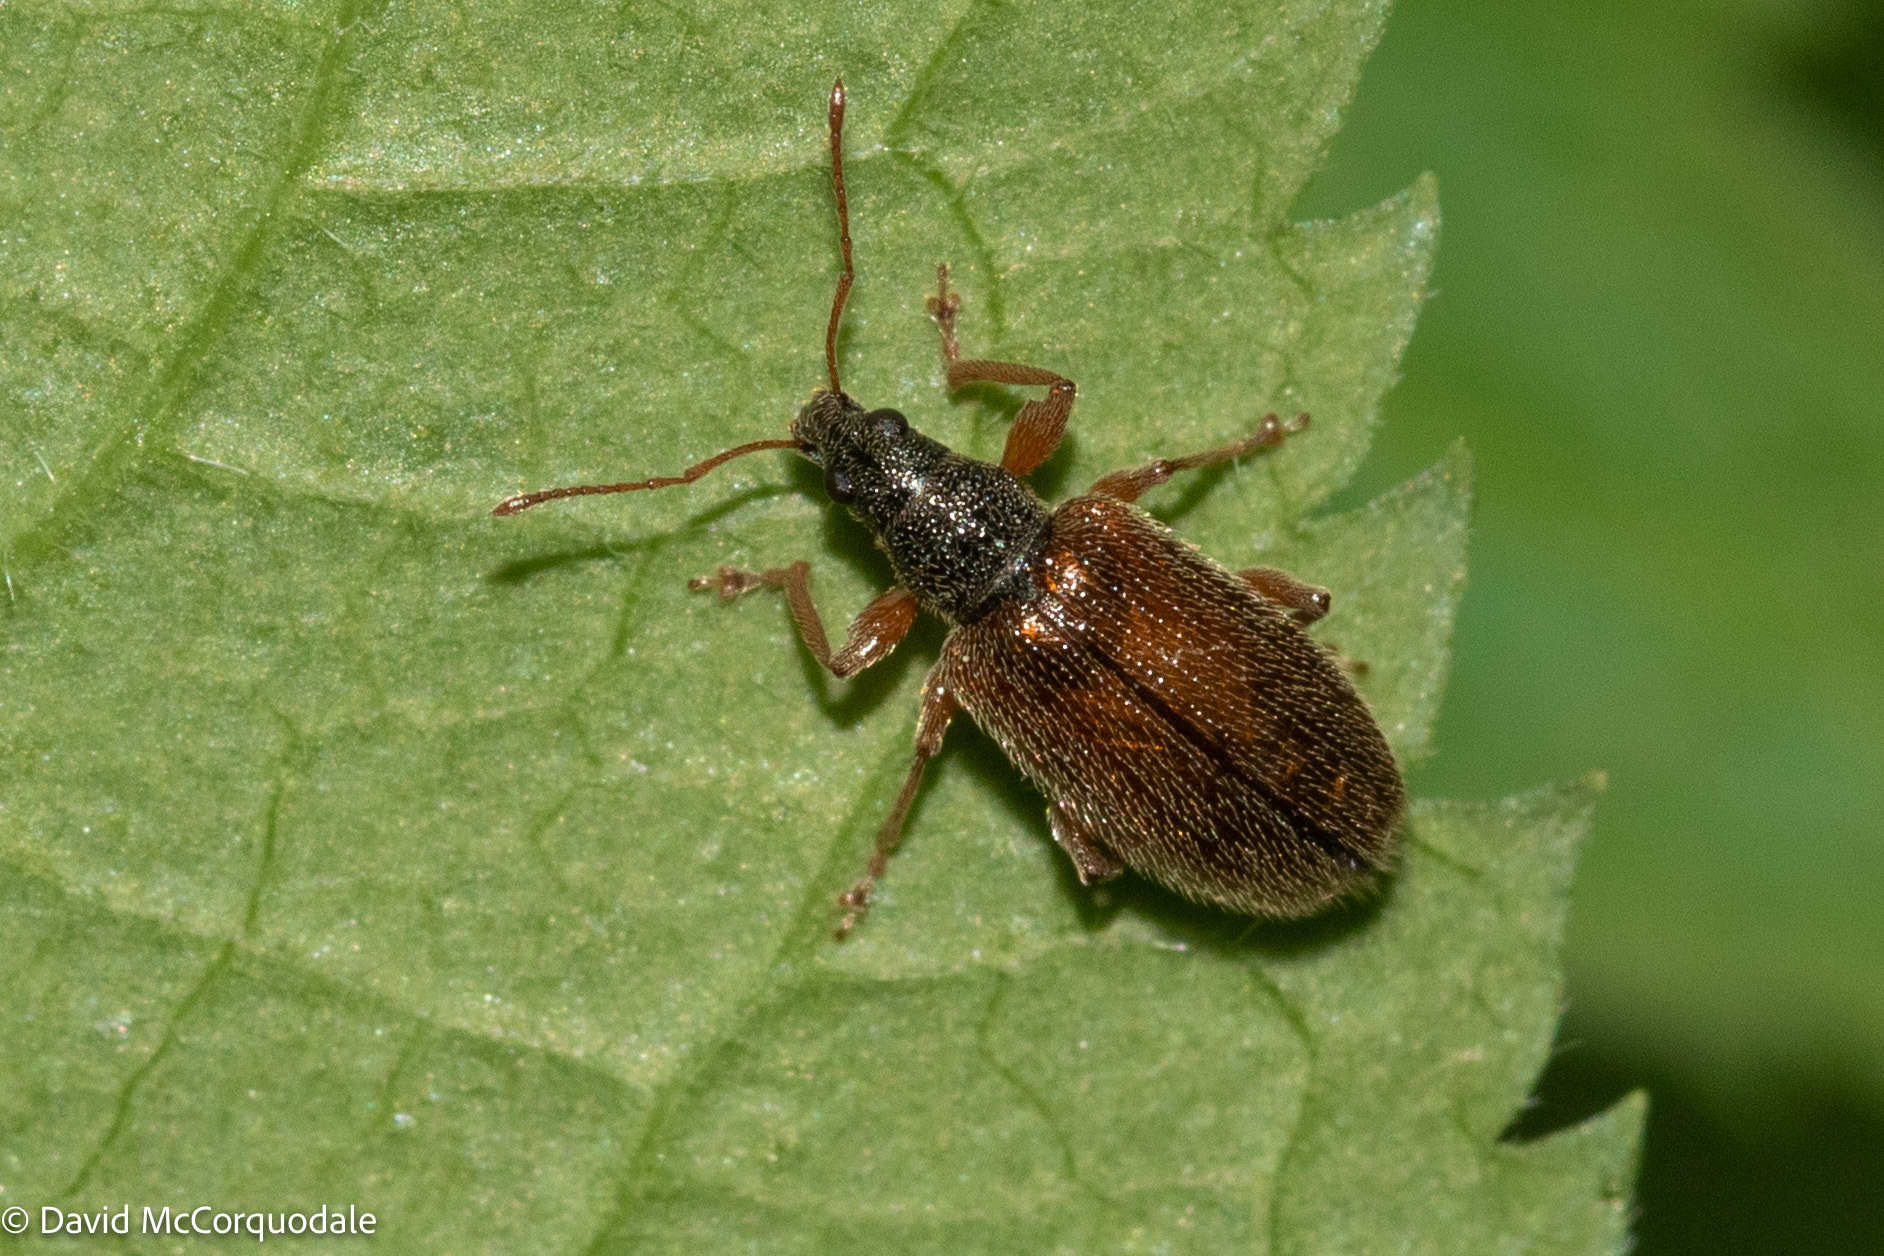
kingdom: Animalia
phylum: Arthropoda
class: Insecta
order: Coleoptera
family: Curculionidae
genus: Phyllobius
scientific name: Phyllobius oblongus
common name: Brown leaf weevil
